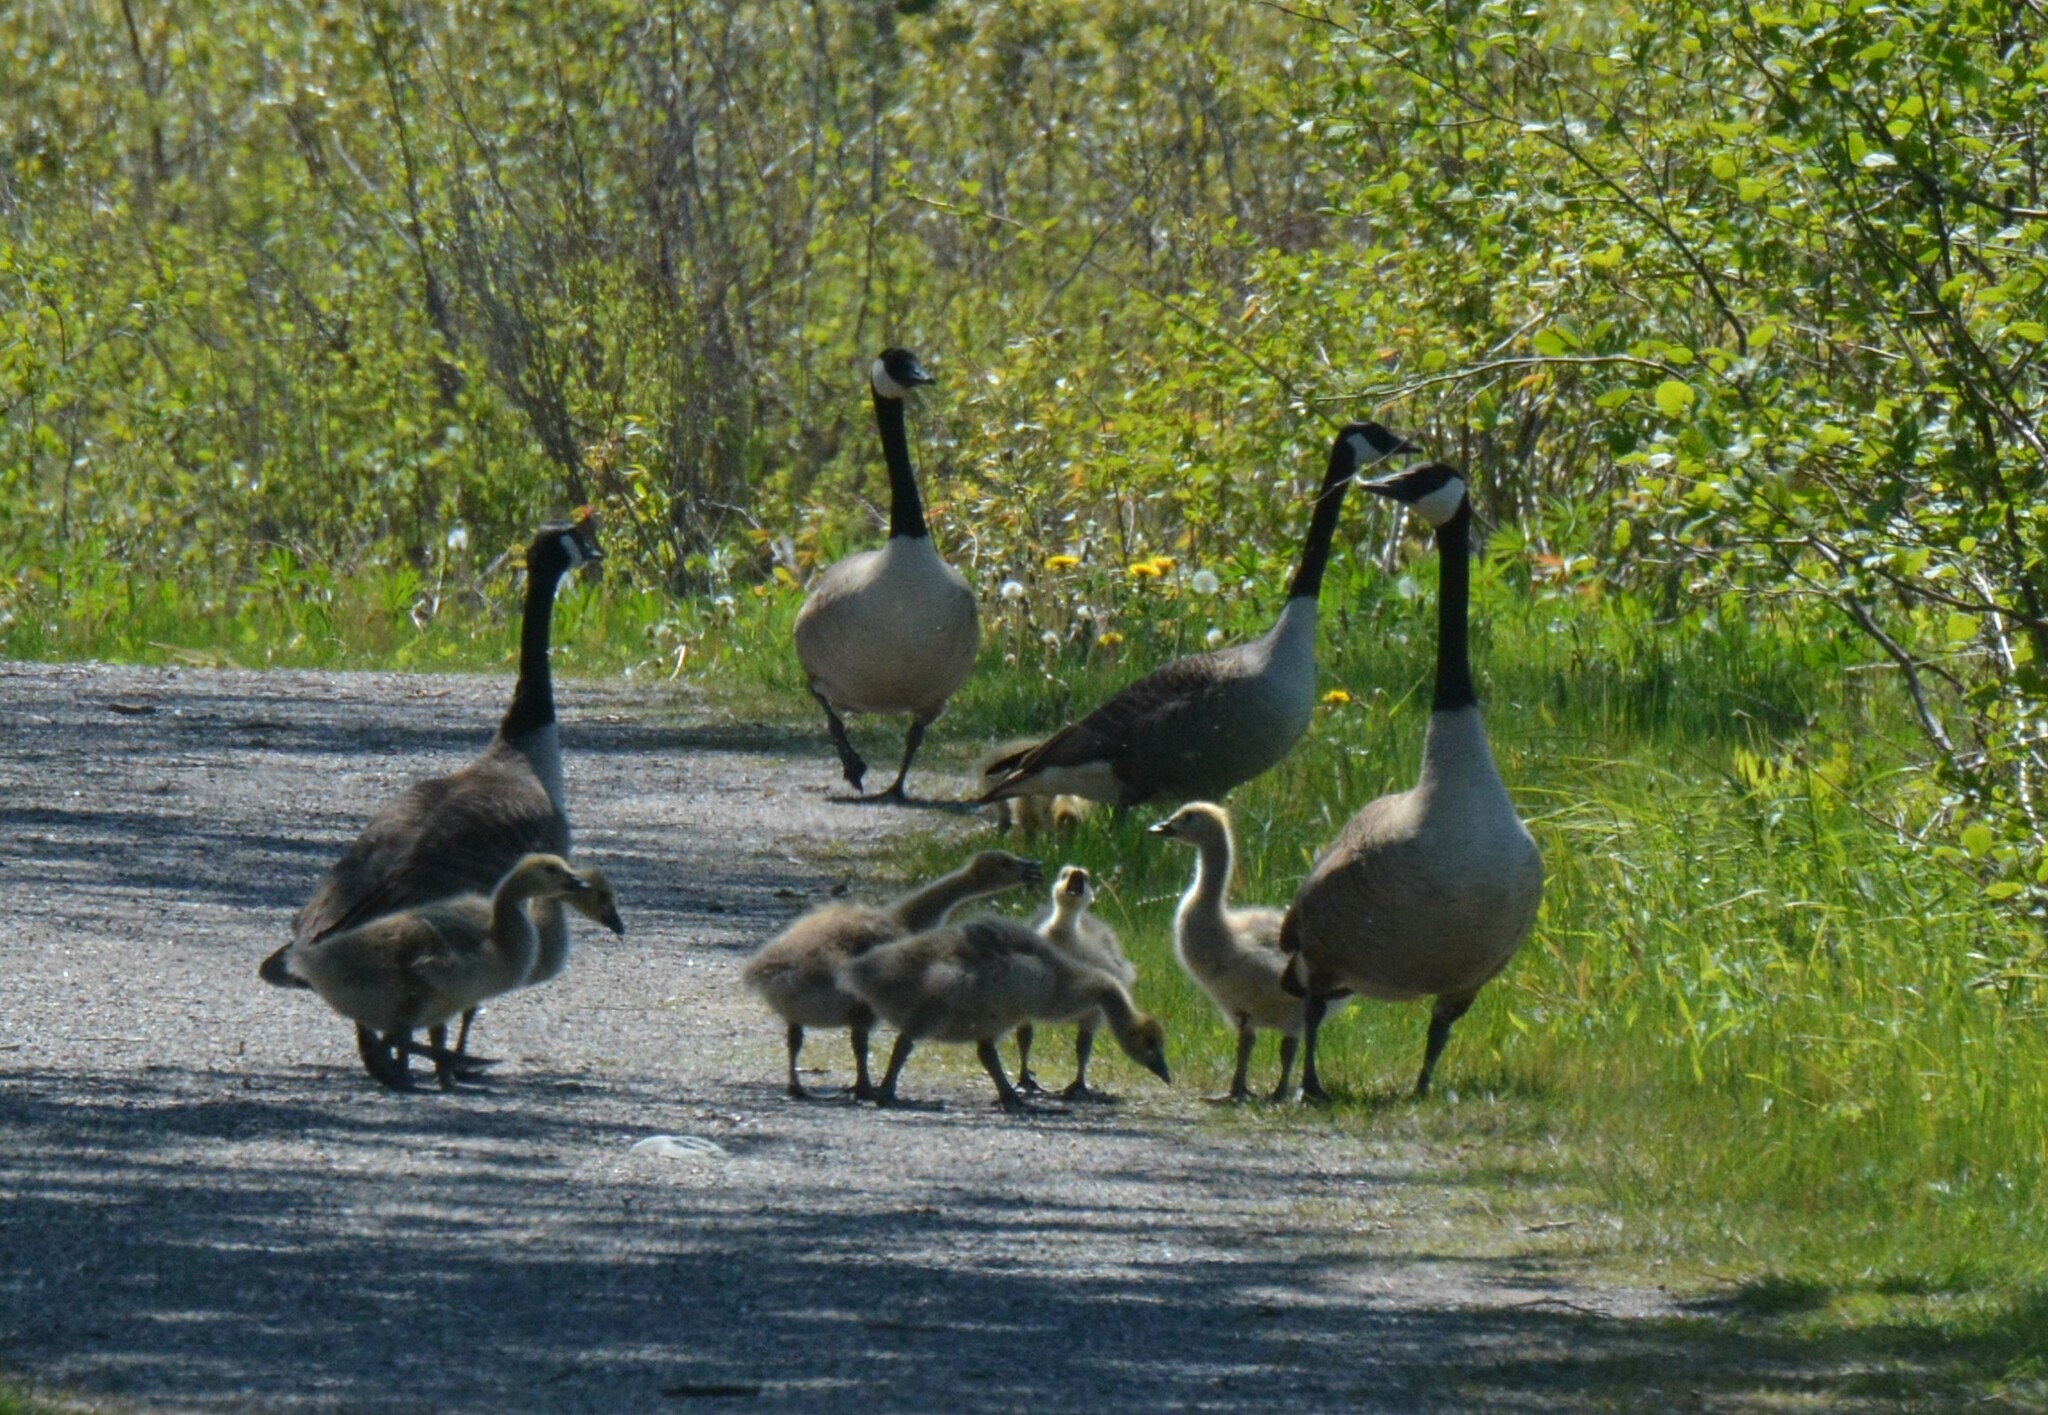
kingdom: Animalia
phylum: Chordata
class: Aves
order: Anseriformes
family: Anatidae
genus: Branta
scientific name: Branta canadensis
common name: Canada goose
